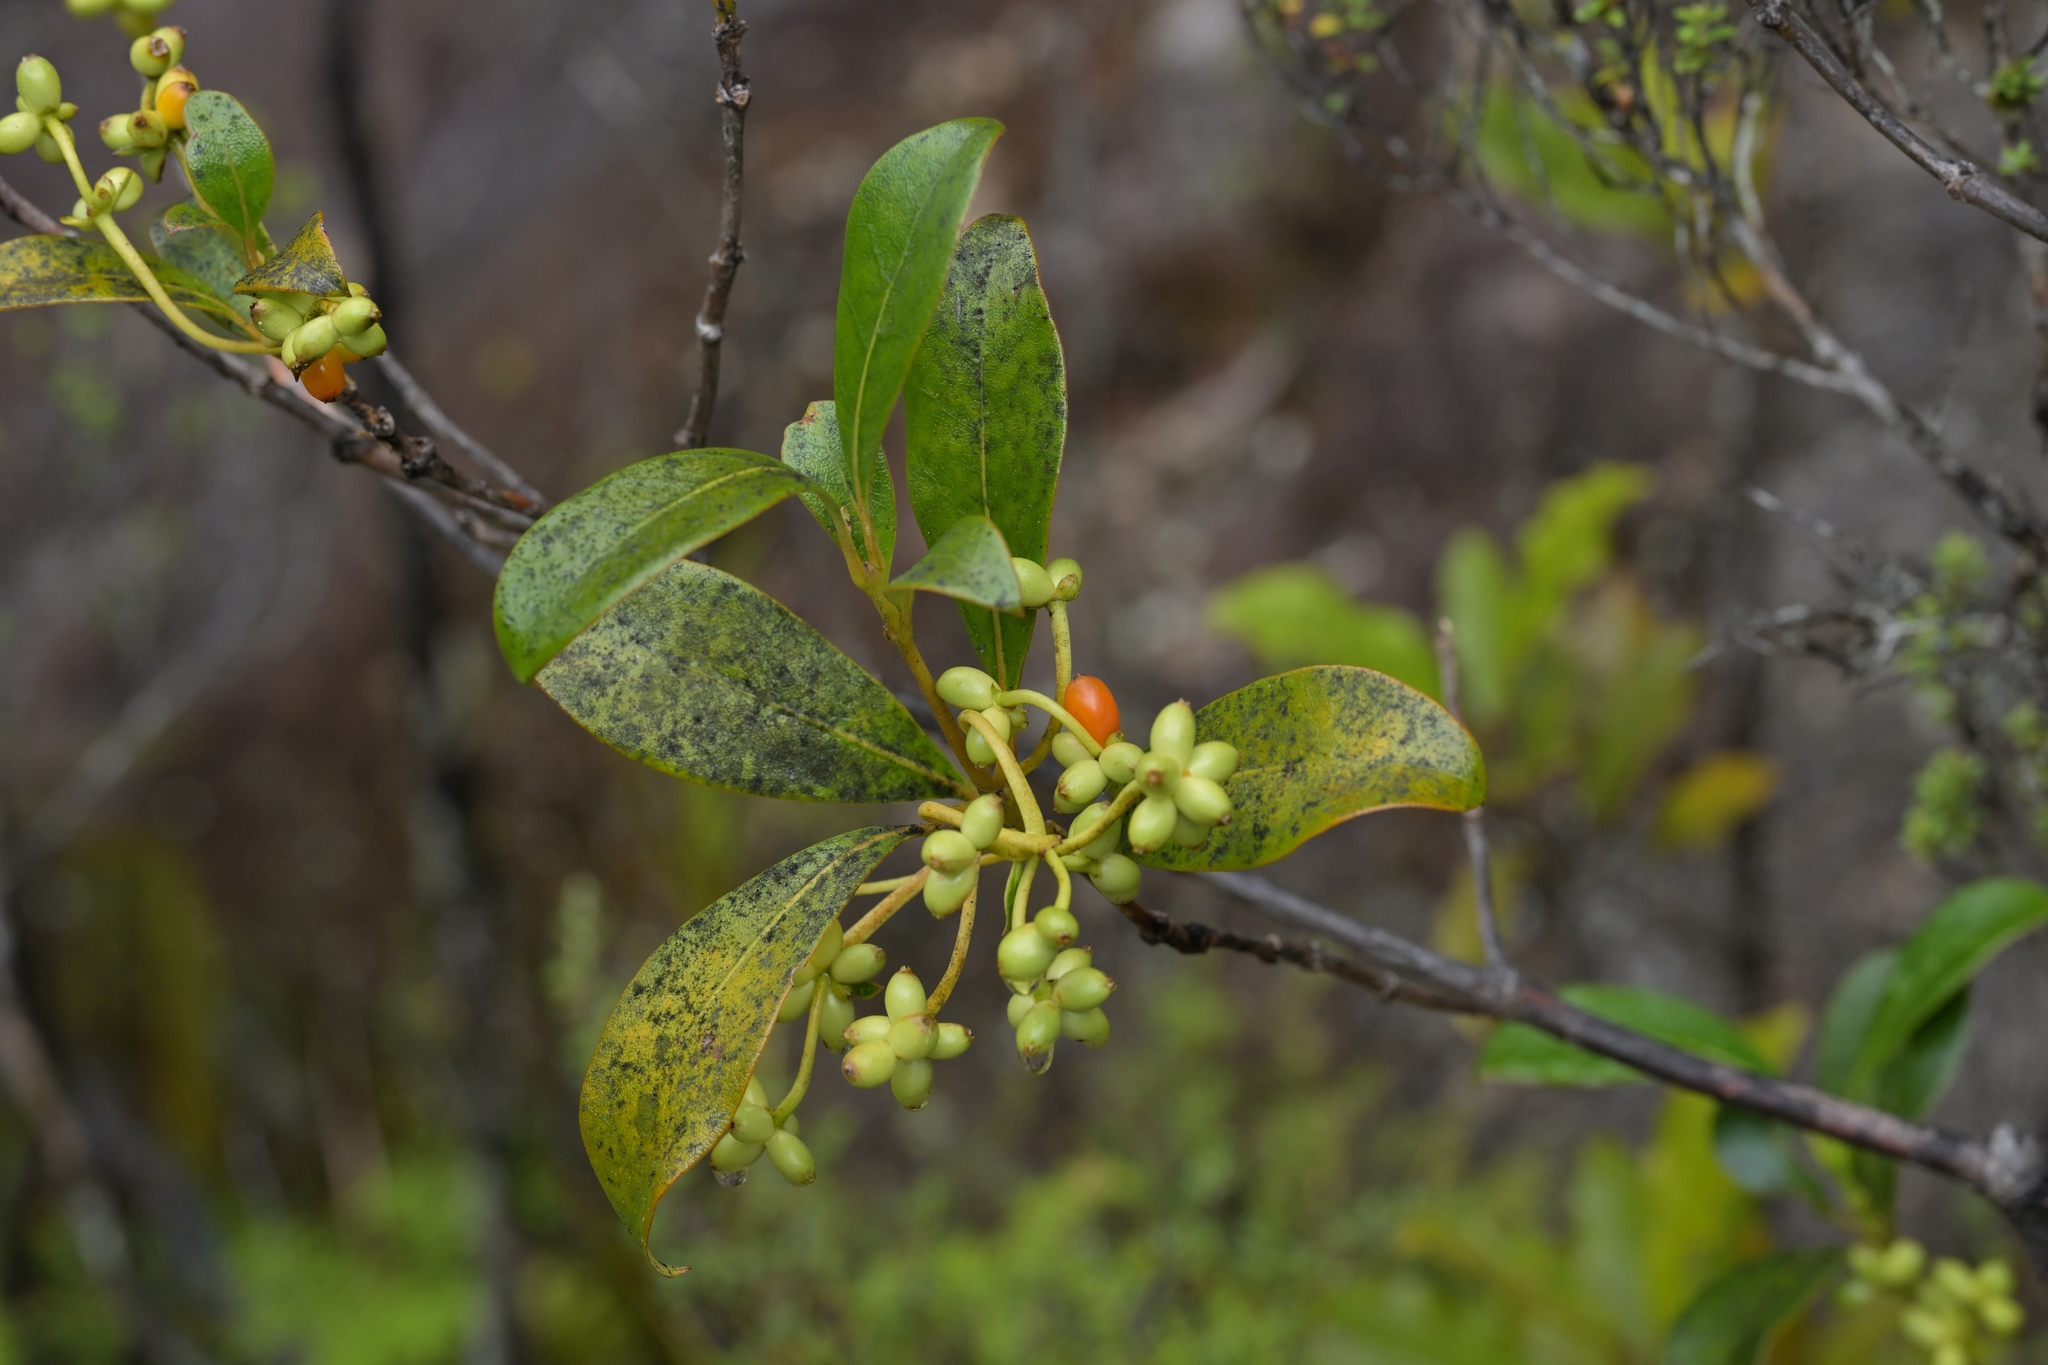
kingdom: Plantae
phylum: Tracheophyta
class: Magnoliopsida
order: Gentianales
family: Rubiaceae
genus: Coprosma
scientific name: Coprosma lucida
